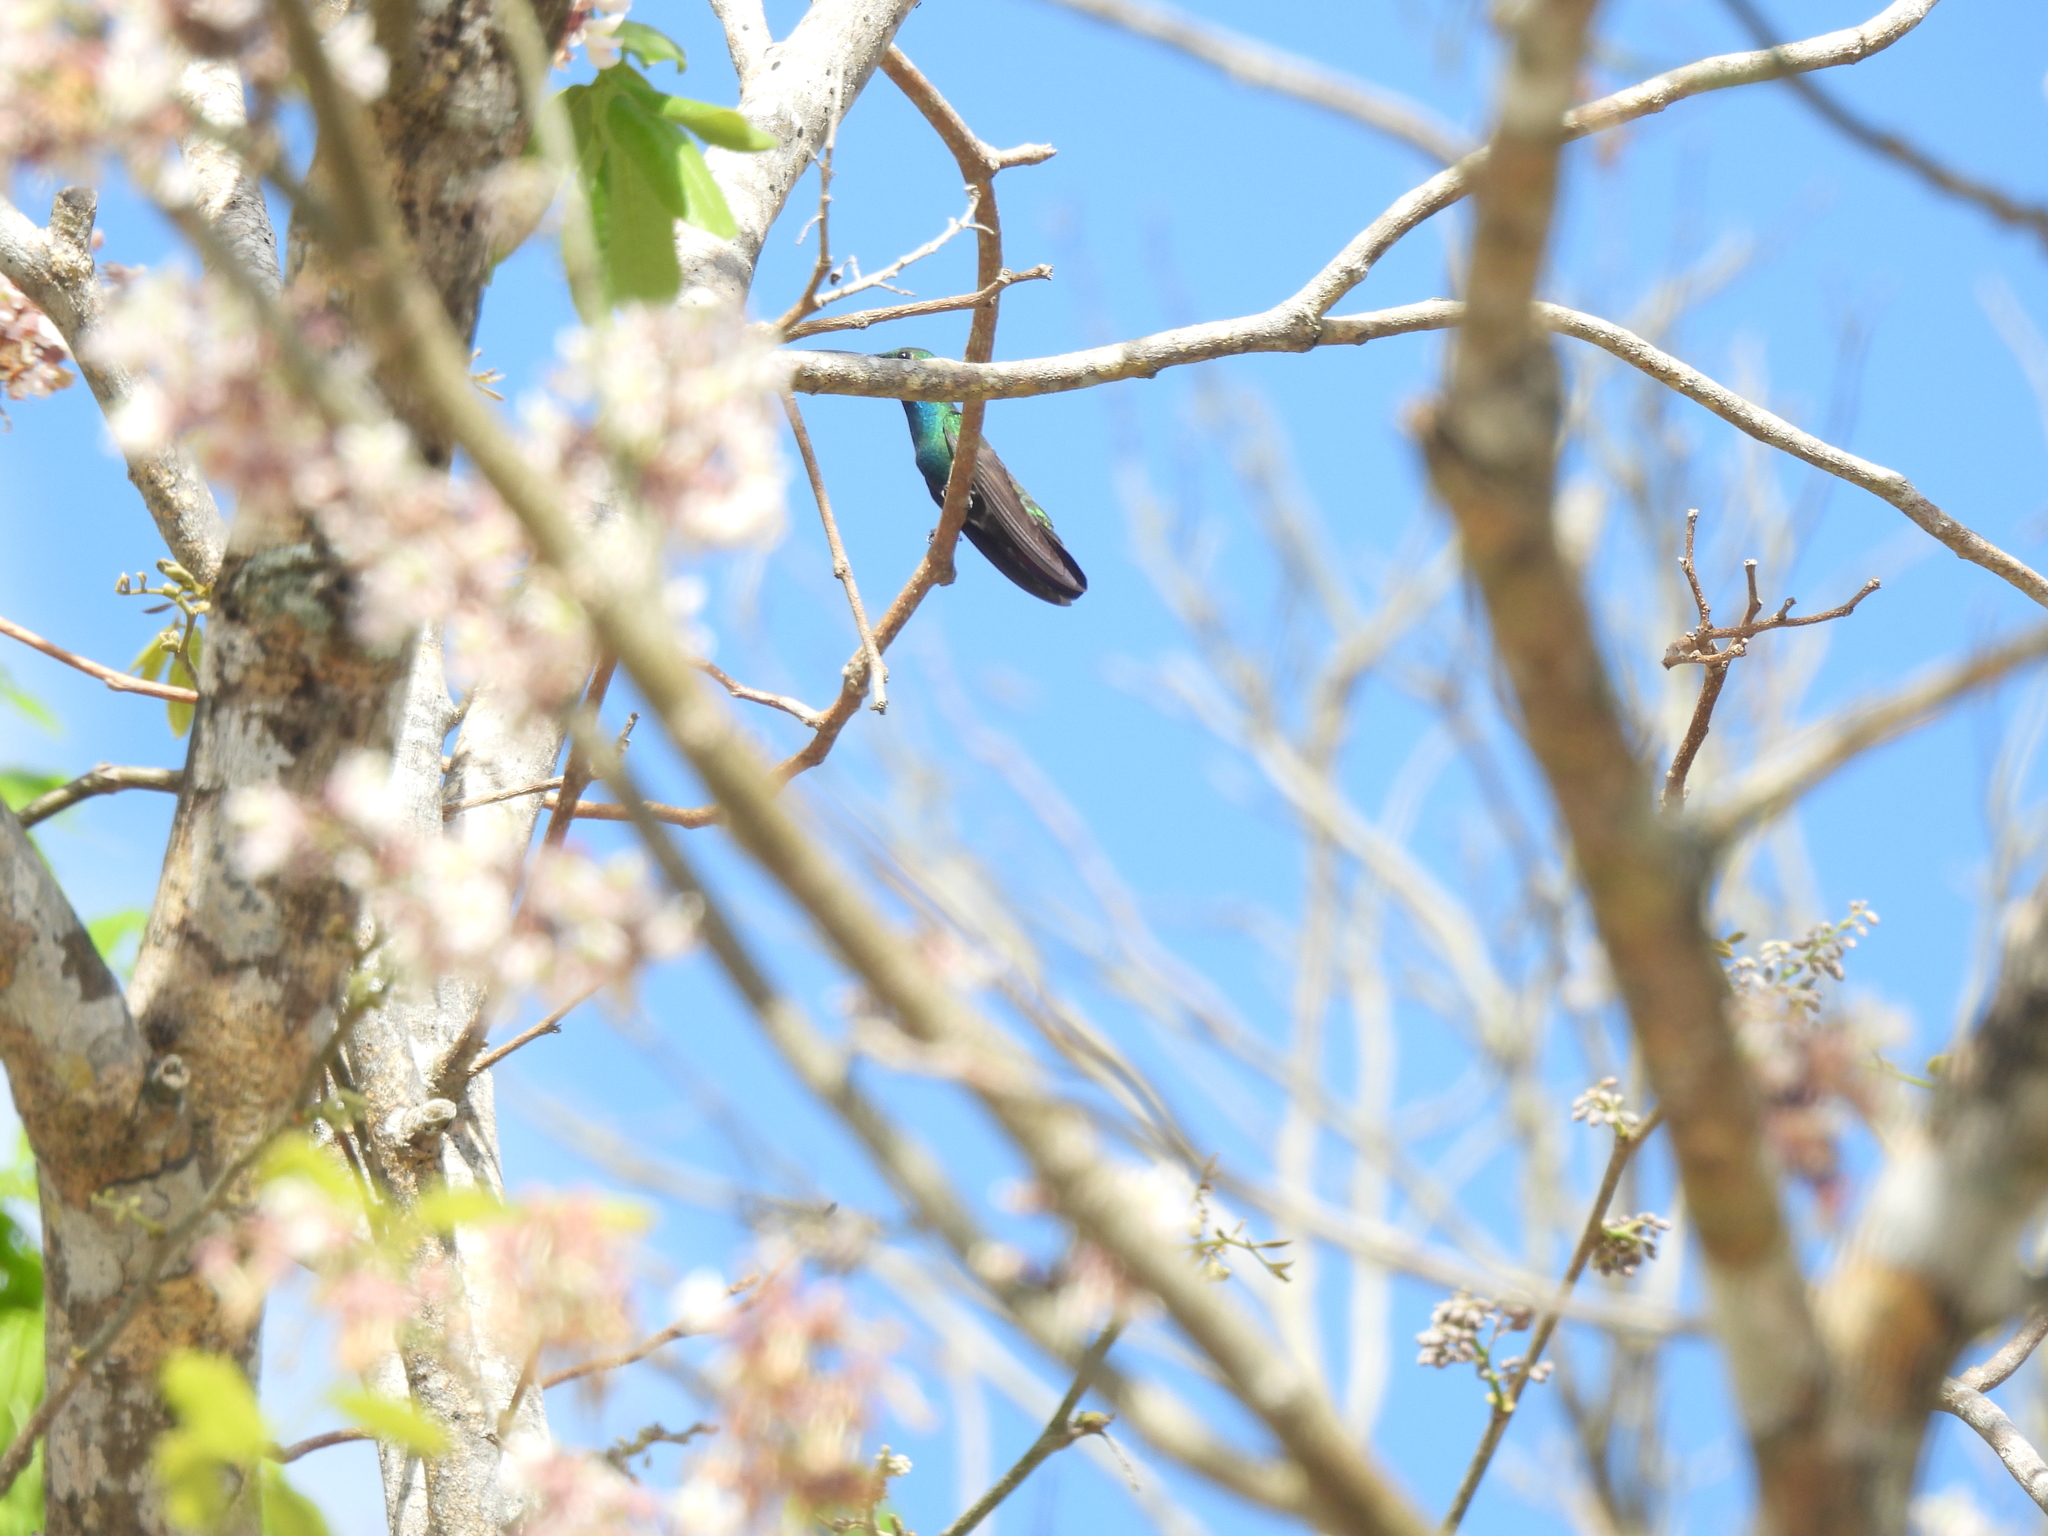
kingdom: Animalia
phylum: Chordata
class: Aves
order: Apodiformes
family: Trochilidae
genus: Anthracothorax
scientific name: Anthracothorax prevostii
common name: Green-breasted mango
